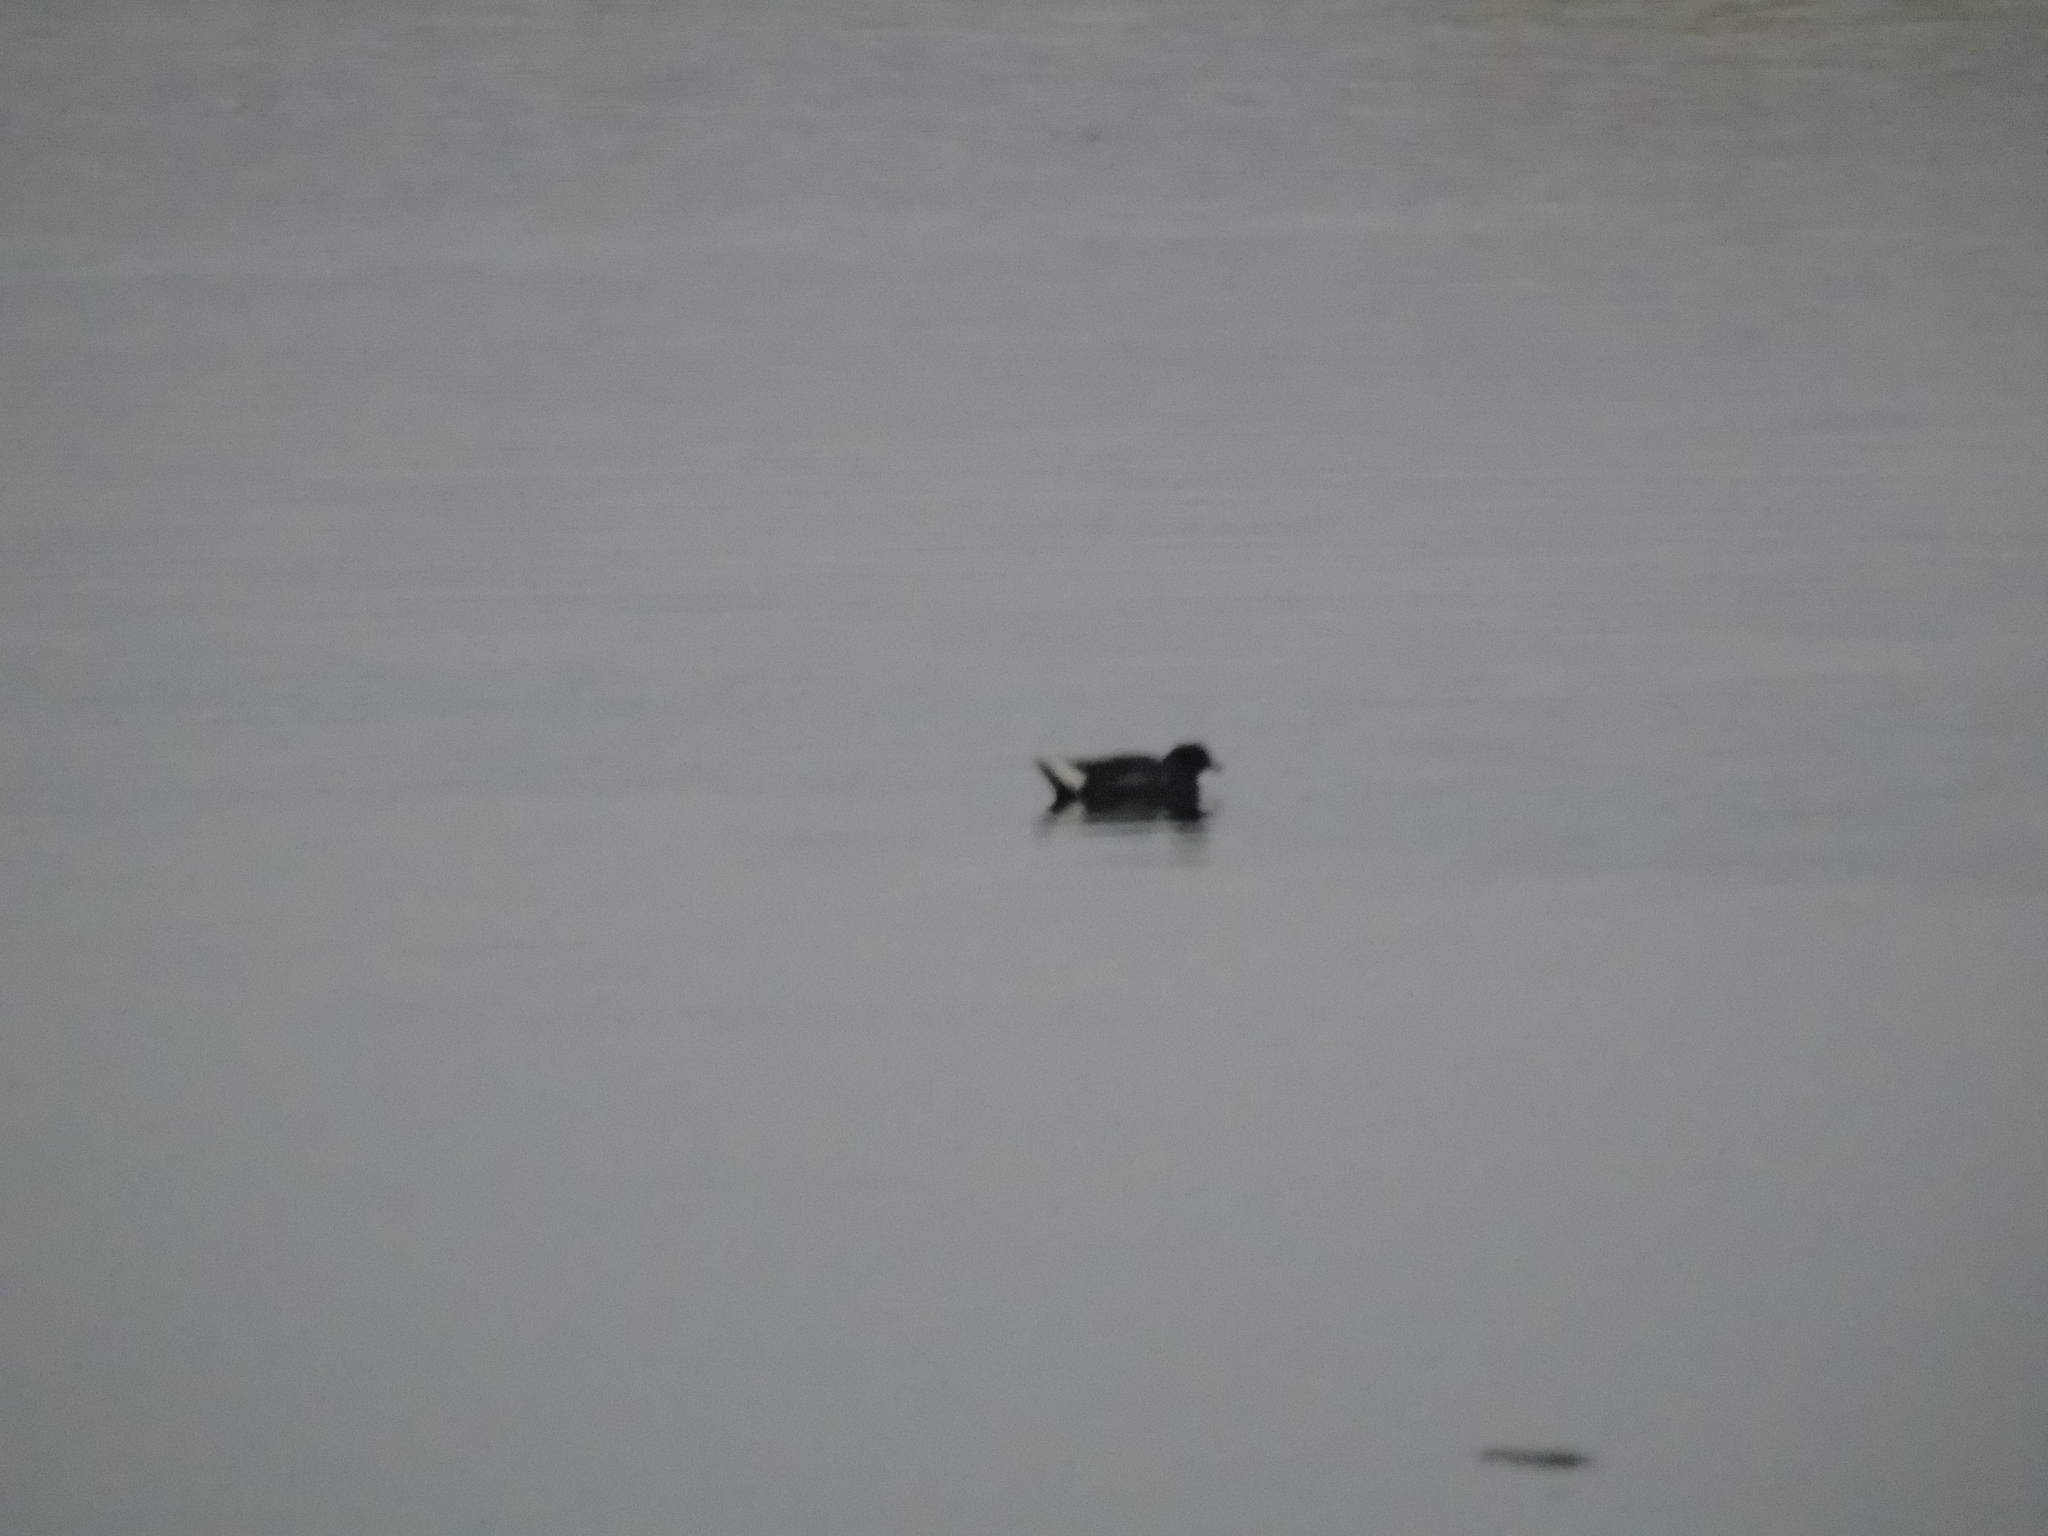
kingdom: Animalia
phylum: Chordata
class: Aves
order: Gruiformes
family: Rallidae
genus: Gallinula
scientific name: Gallinula chloropus
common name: Common moorhen
